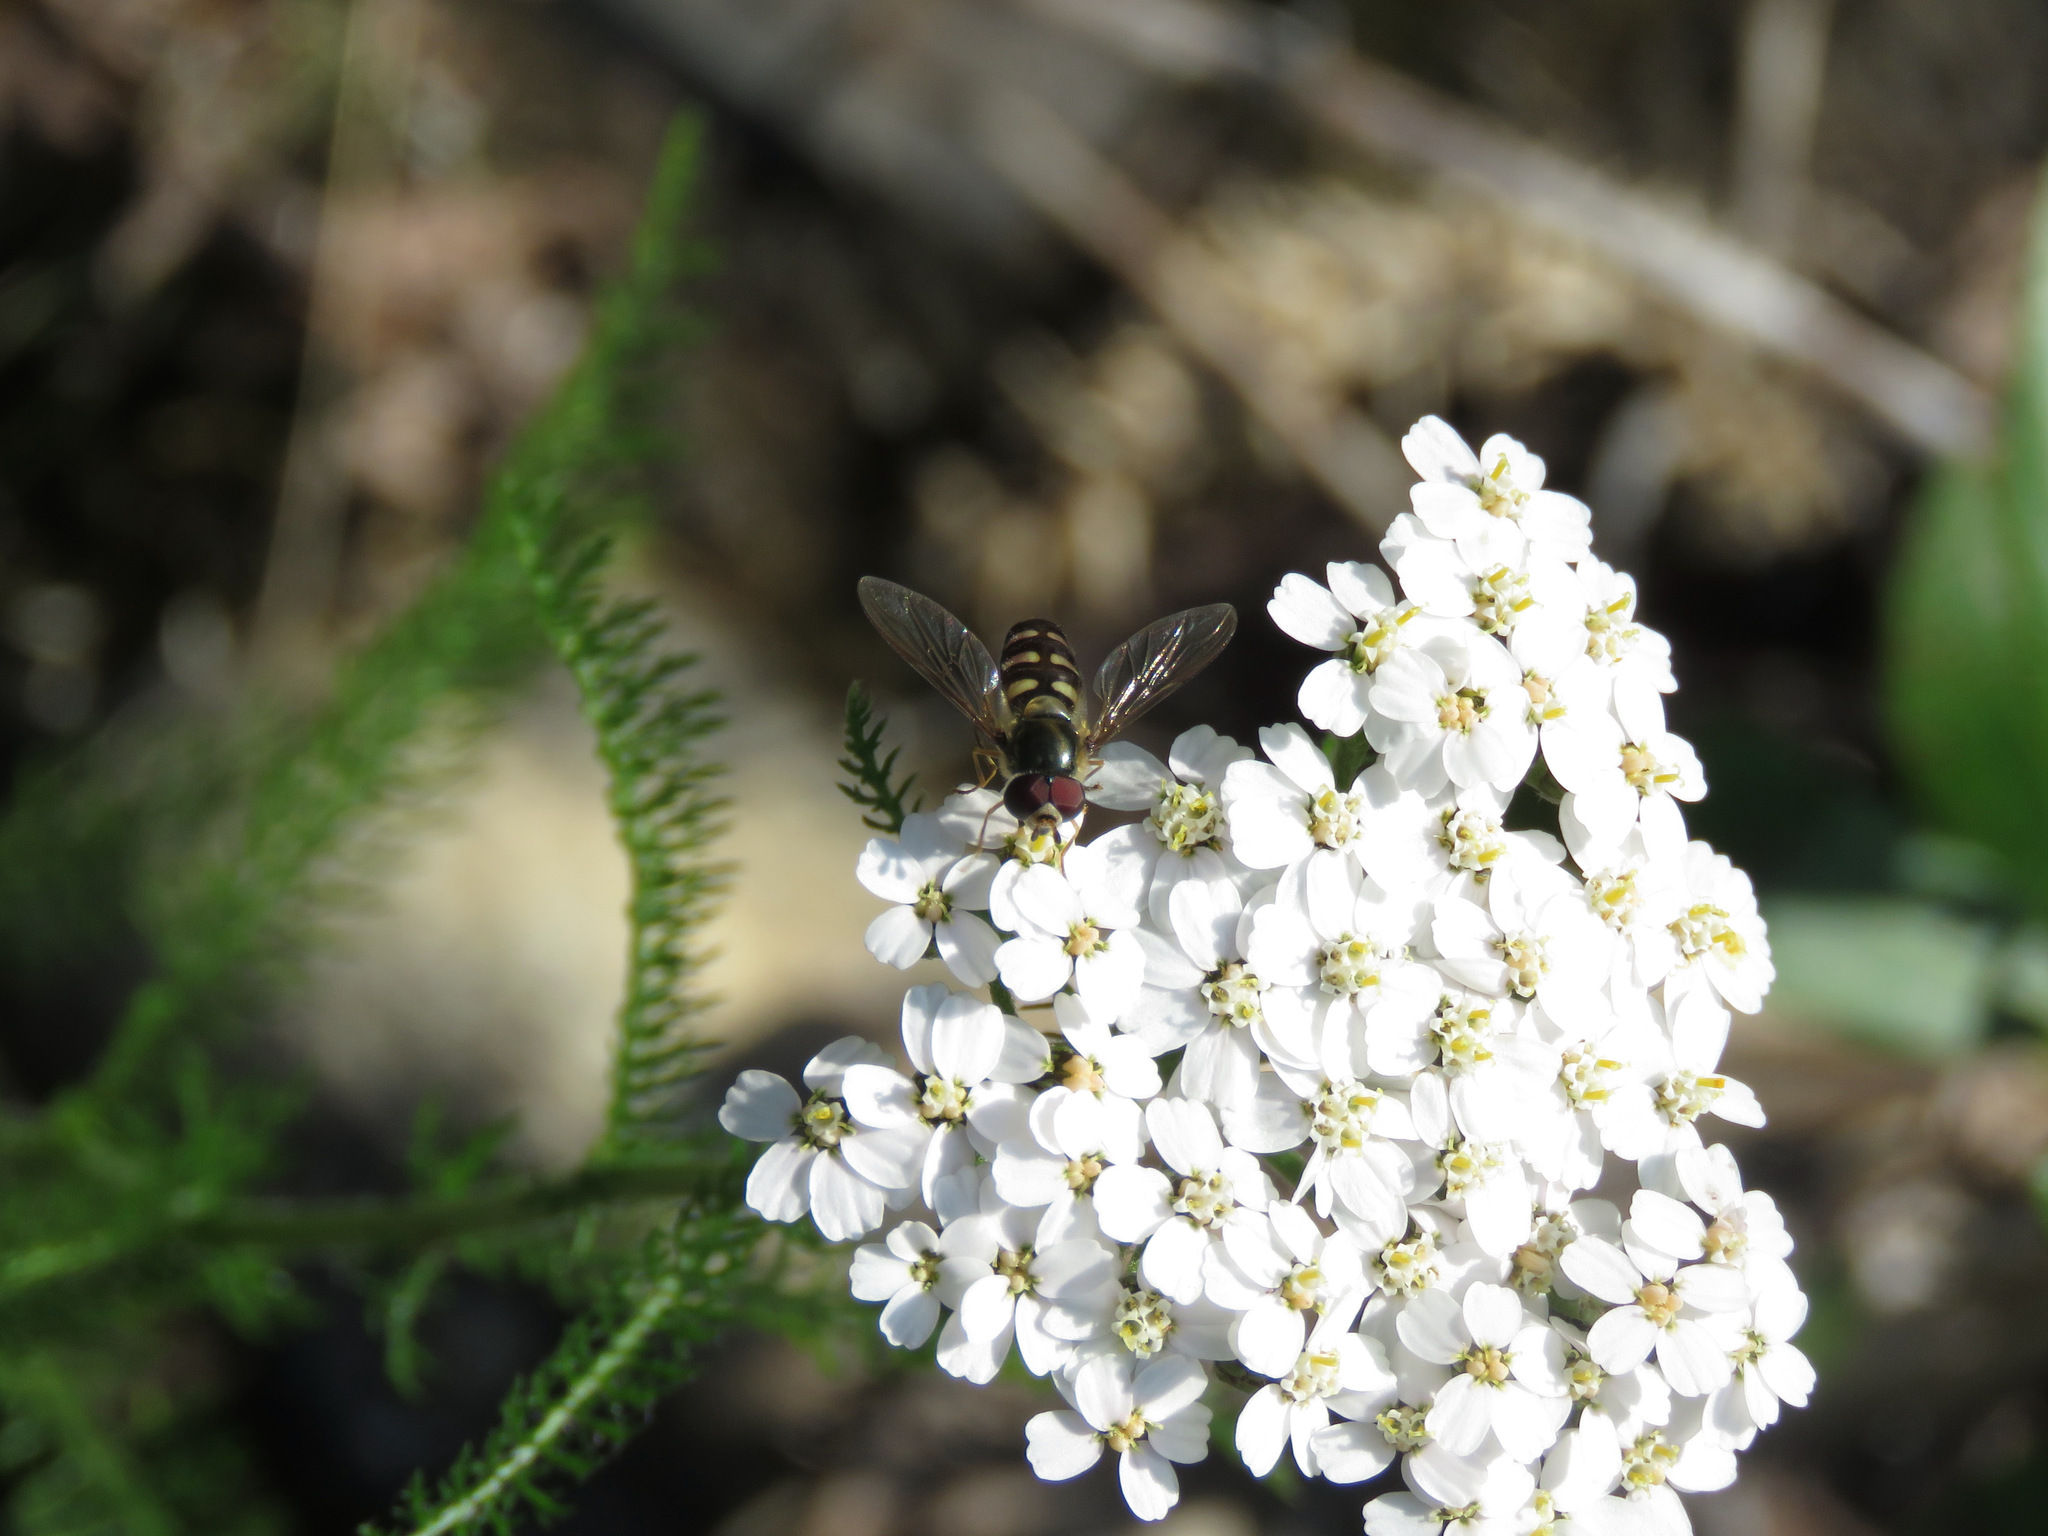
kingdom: Animalia
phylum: Arthropoda
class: Insecta
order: Diptera
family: Syrphidae
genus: Lapposyrphus
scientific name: Lapposyrphus lapponicus
